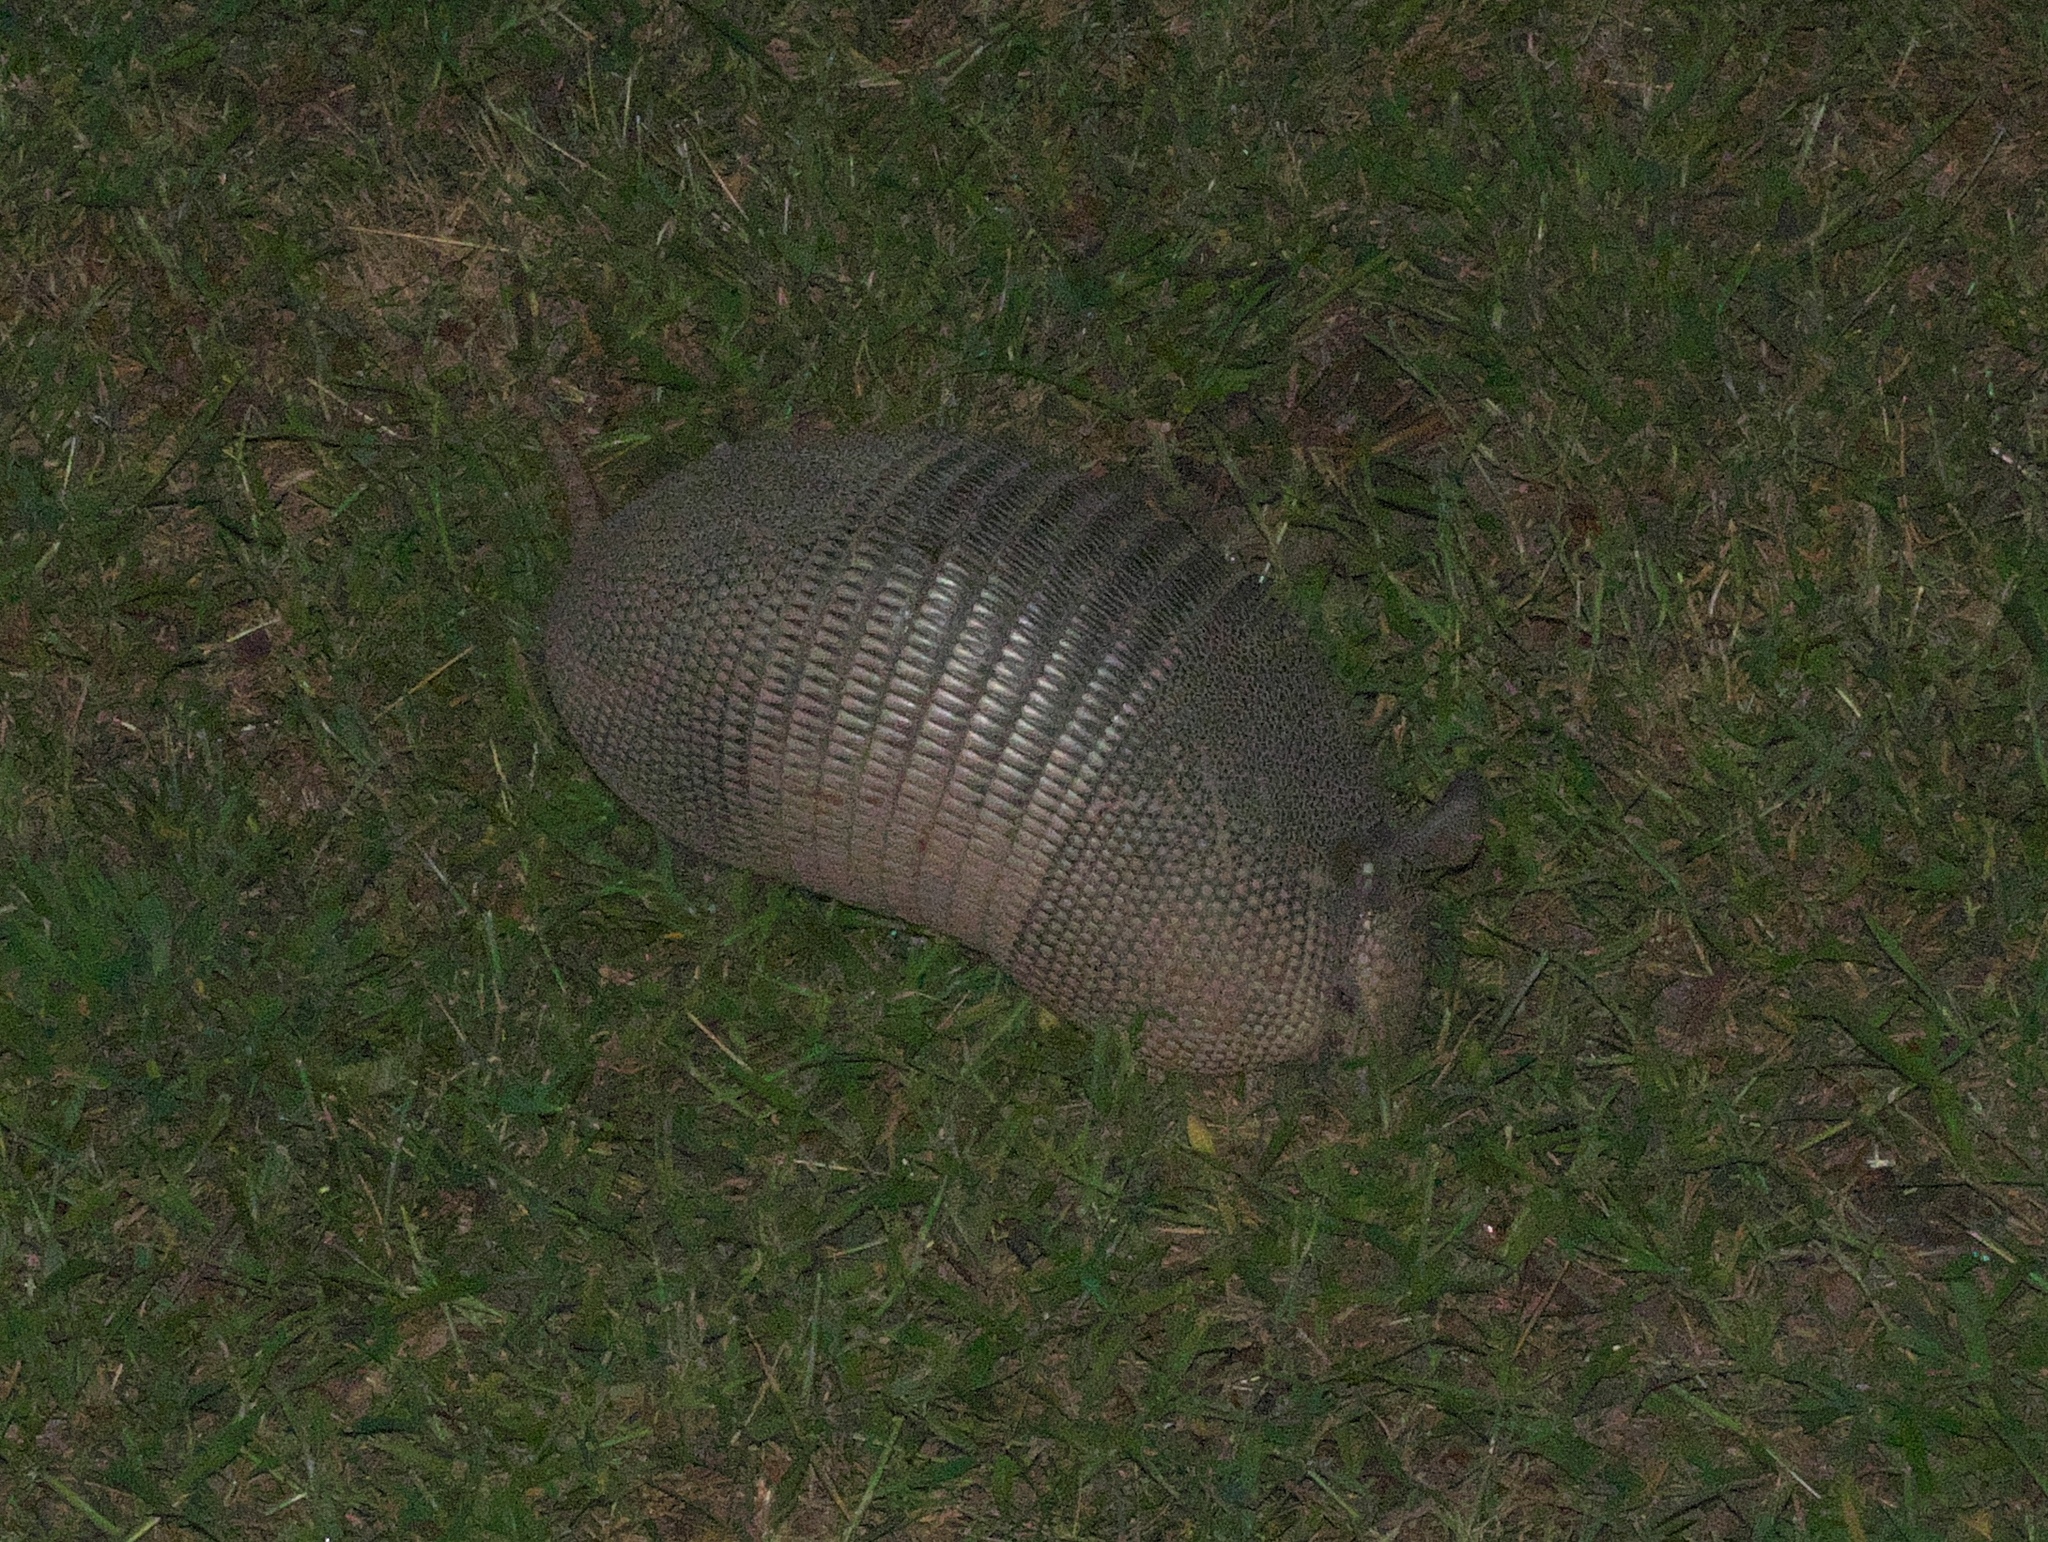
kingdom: Animalia
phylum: Chordata
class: Mammalia
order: Cingulata
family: Dasypodidae
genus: Dasypus
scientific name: Dasypus novemcinctus
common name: Nine-banded armadillo
